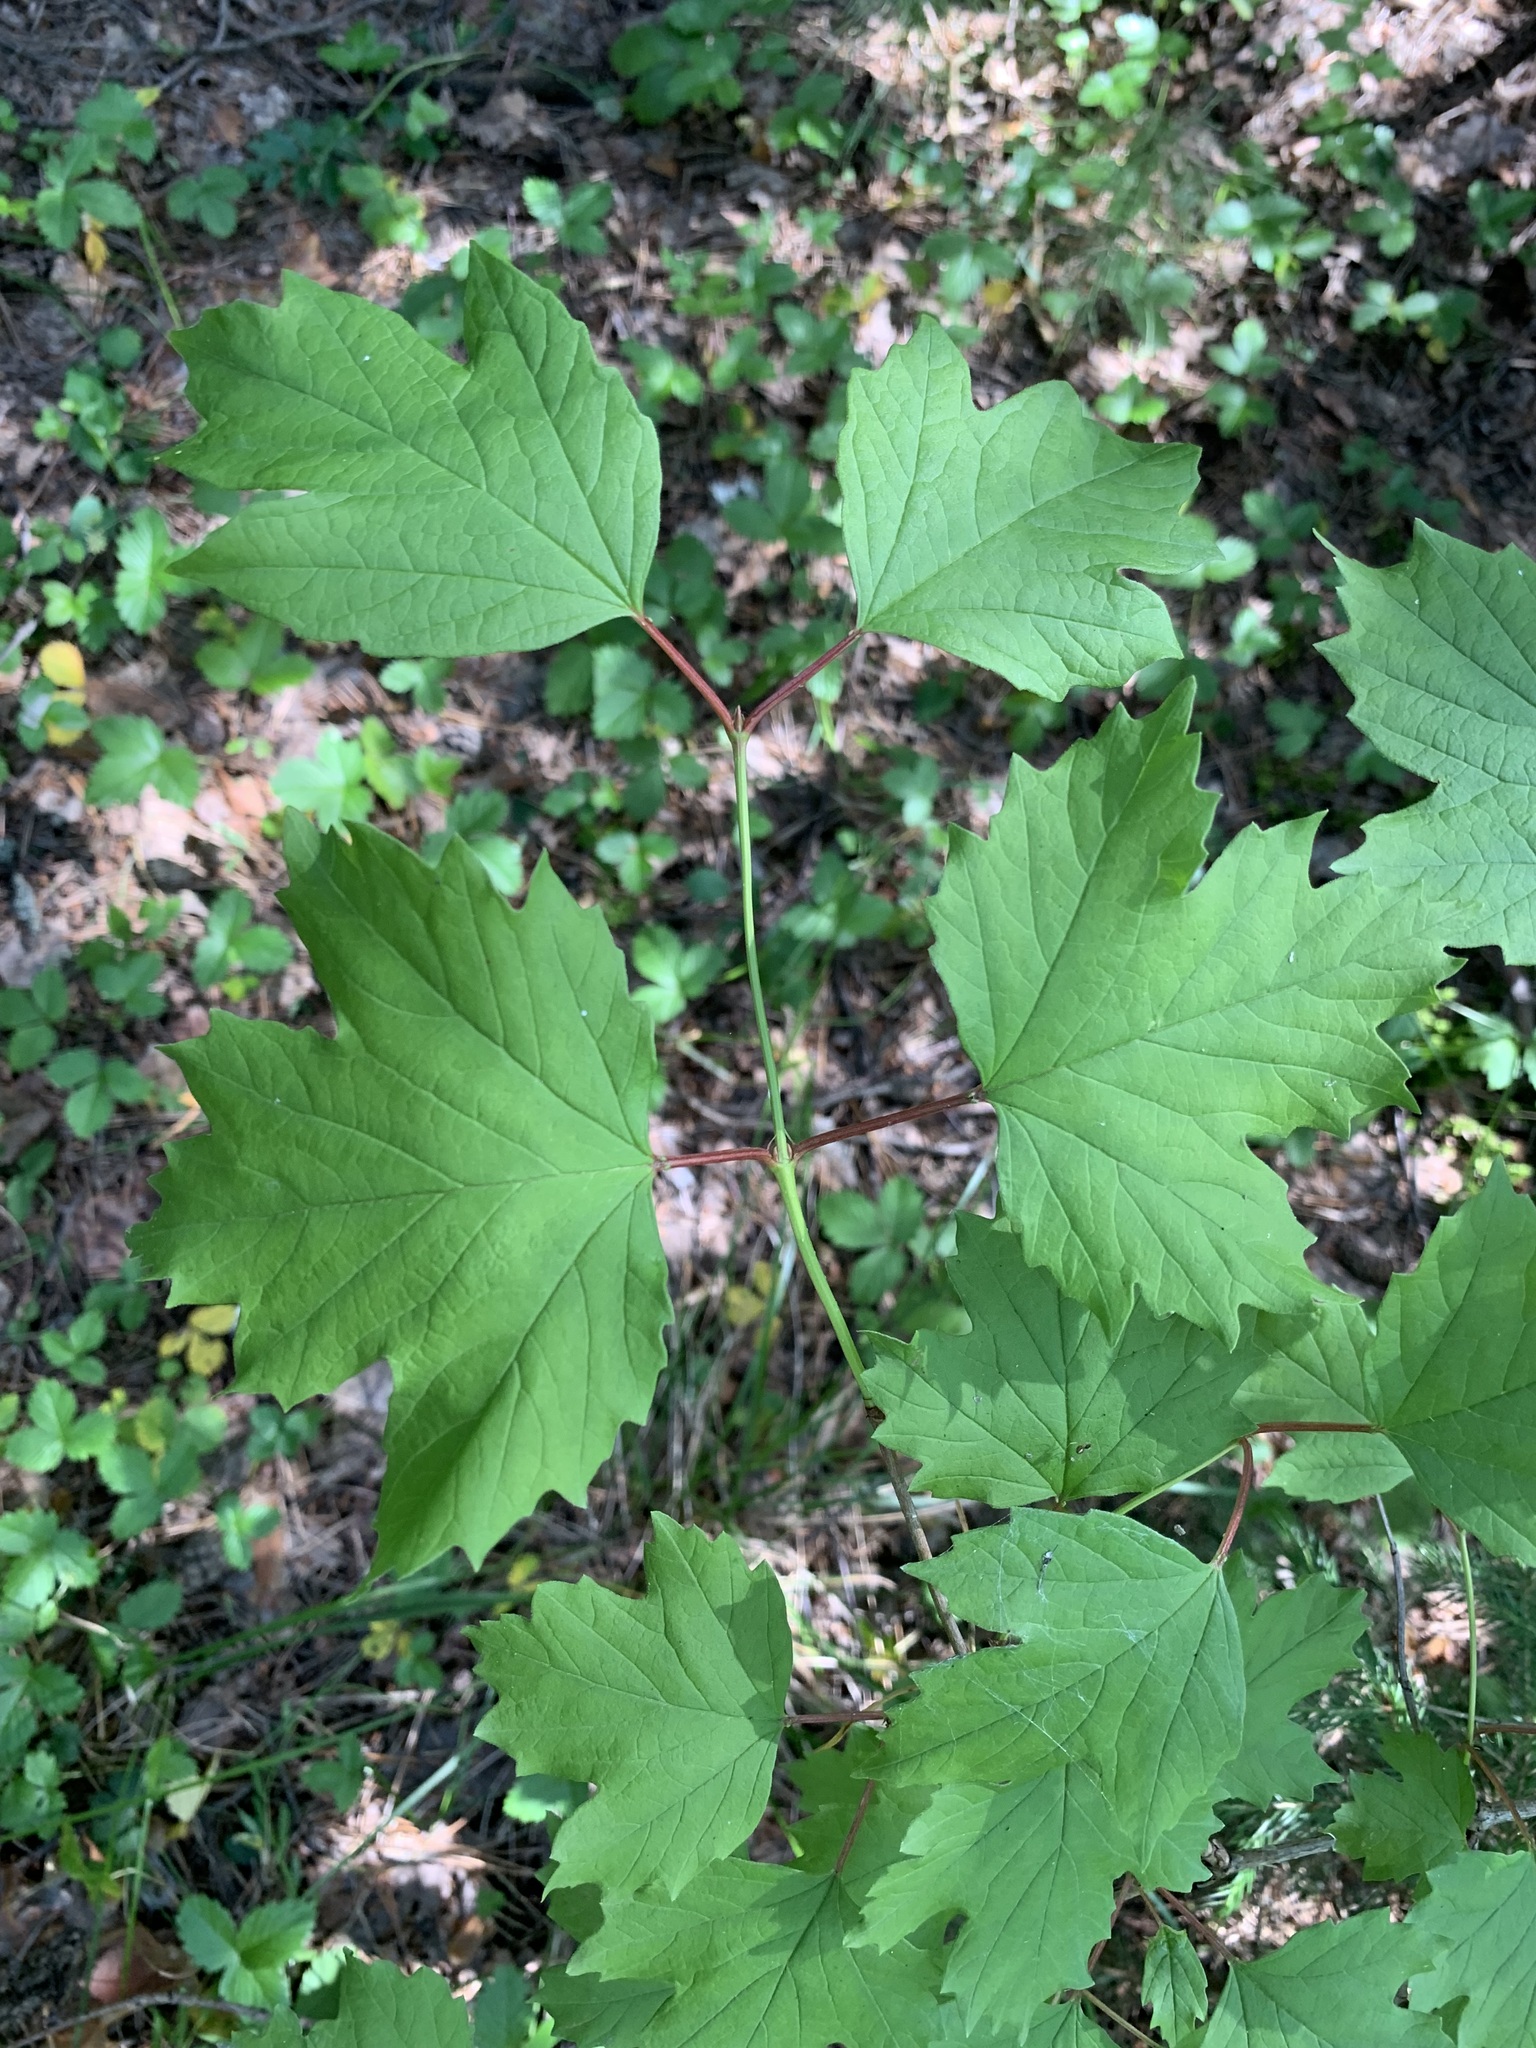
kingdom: Plantae
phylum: Tracheophyta
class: Magnoliopsida
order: Dipsacales
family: Viburnaceae
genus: Viburnum
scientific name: Viburnum opulus
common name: Guelder-rose
